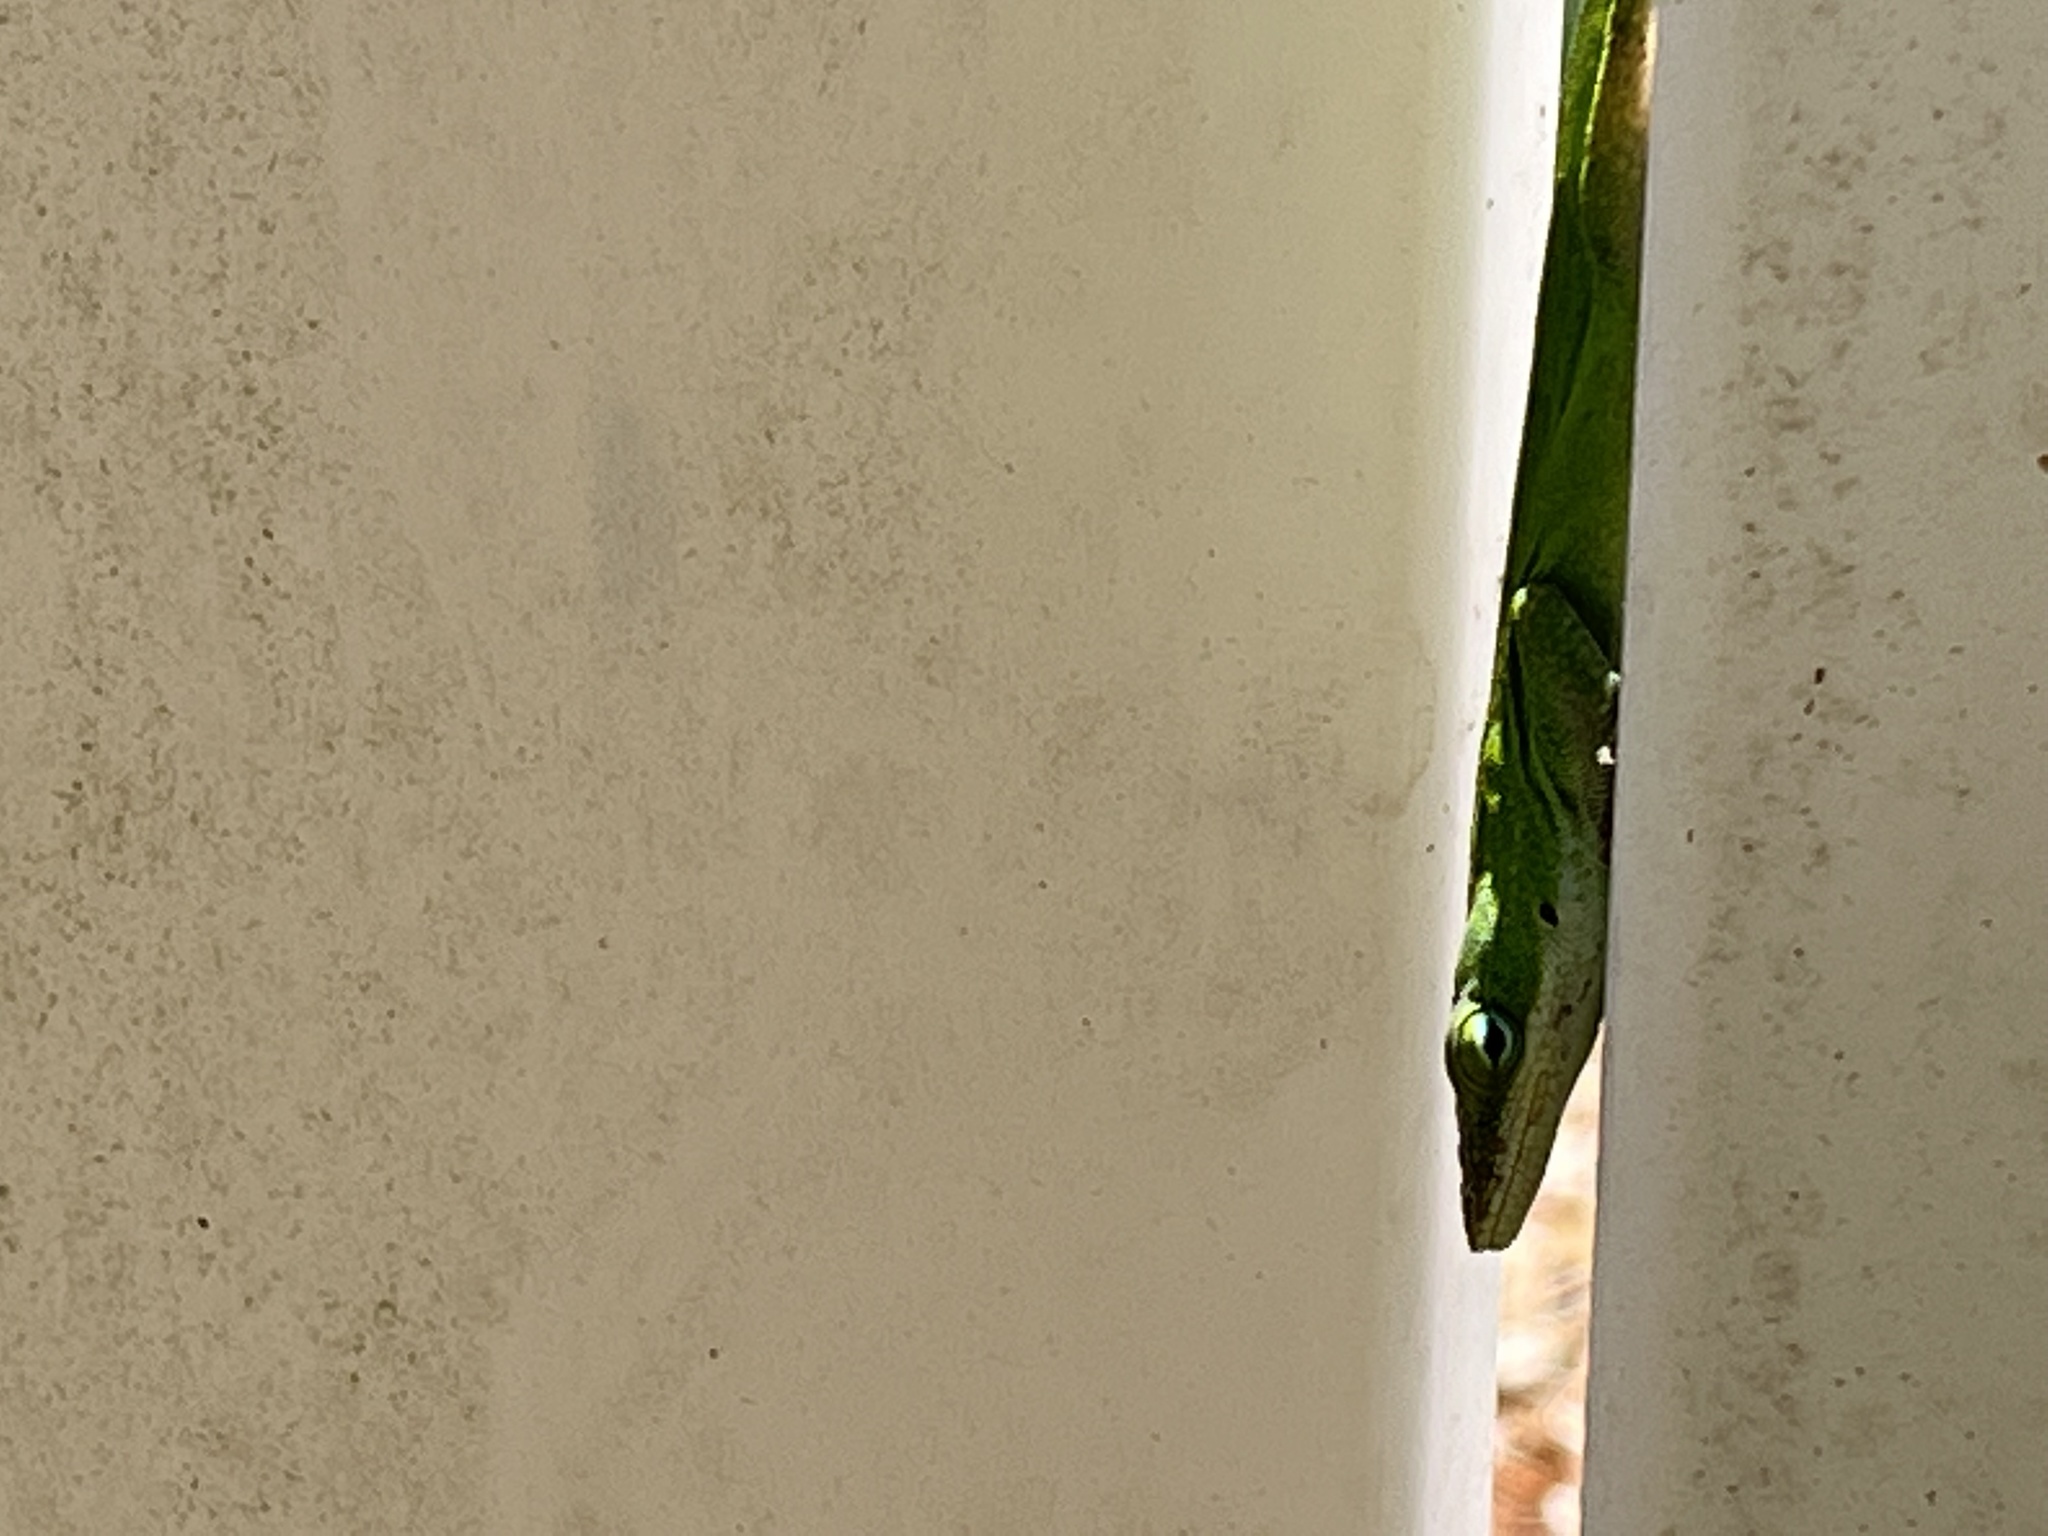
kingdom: Animalia
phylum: Chordata
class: Squamata
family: Dactyloidae
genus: Anolis
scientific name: Anolis carolinensis
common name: Green anole
